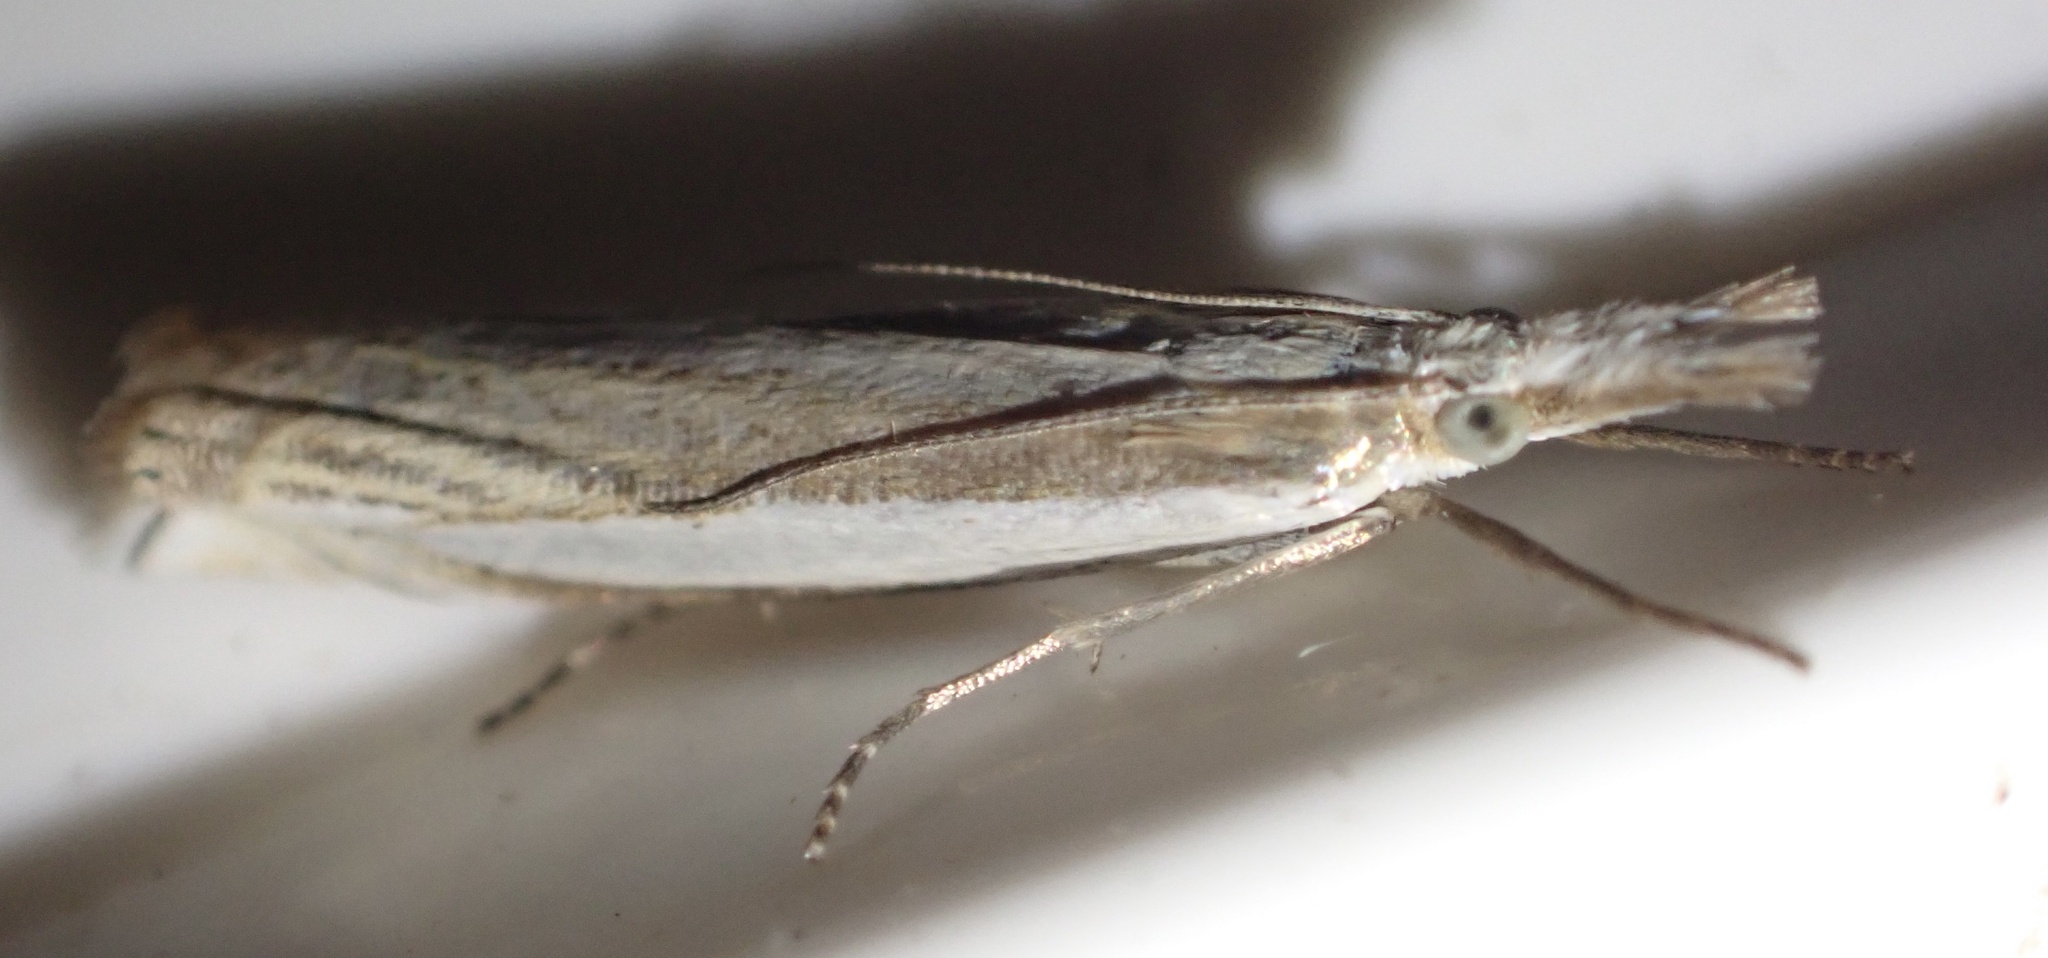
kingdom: Animalia
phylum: Arthropoda
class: Insecta
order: Lepidoptera
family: Crambidae
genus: Crambus
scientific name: Crambus pascuella
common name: Inlaid grass-veneer
